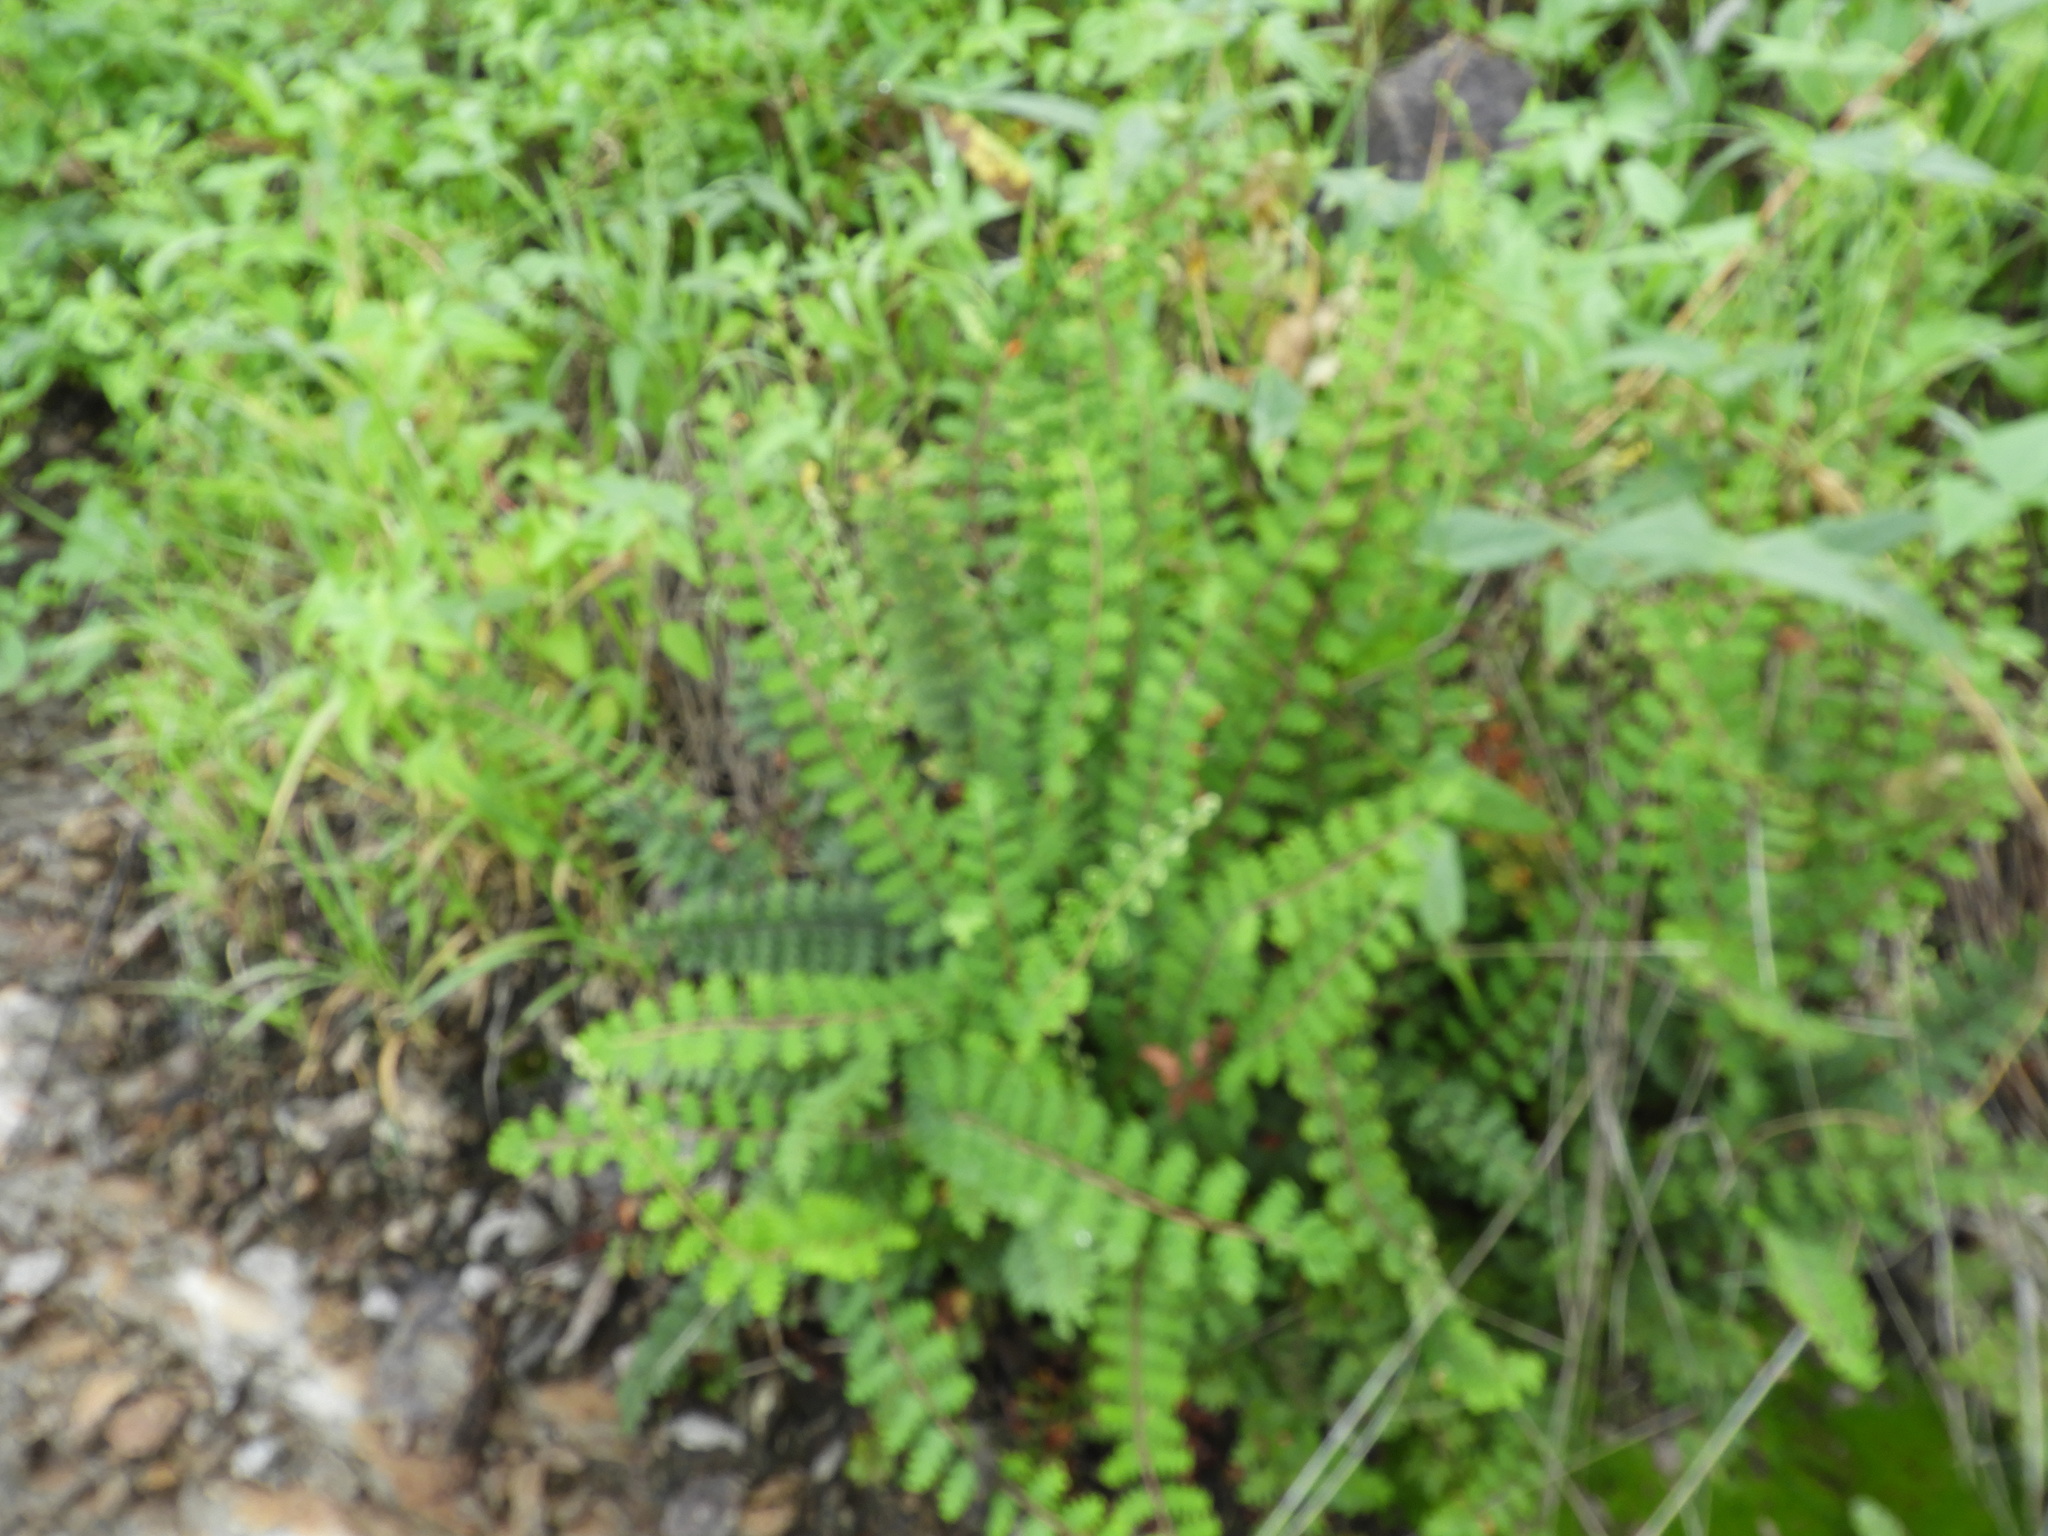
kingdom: Plantae
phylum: Tracheophyta
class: Polypodiopsida
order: Polypodiales
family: Pteridaceae
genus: Myriopteris
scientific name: Myriopteris aurea
